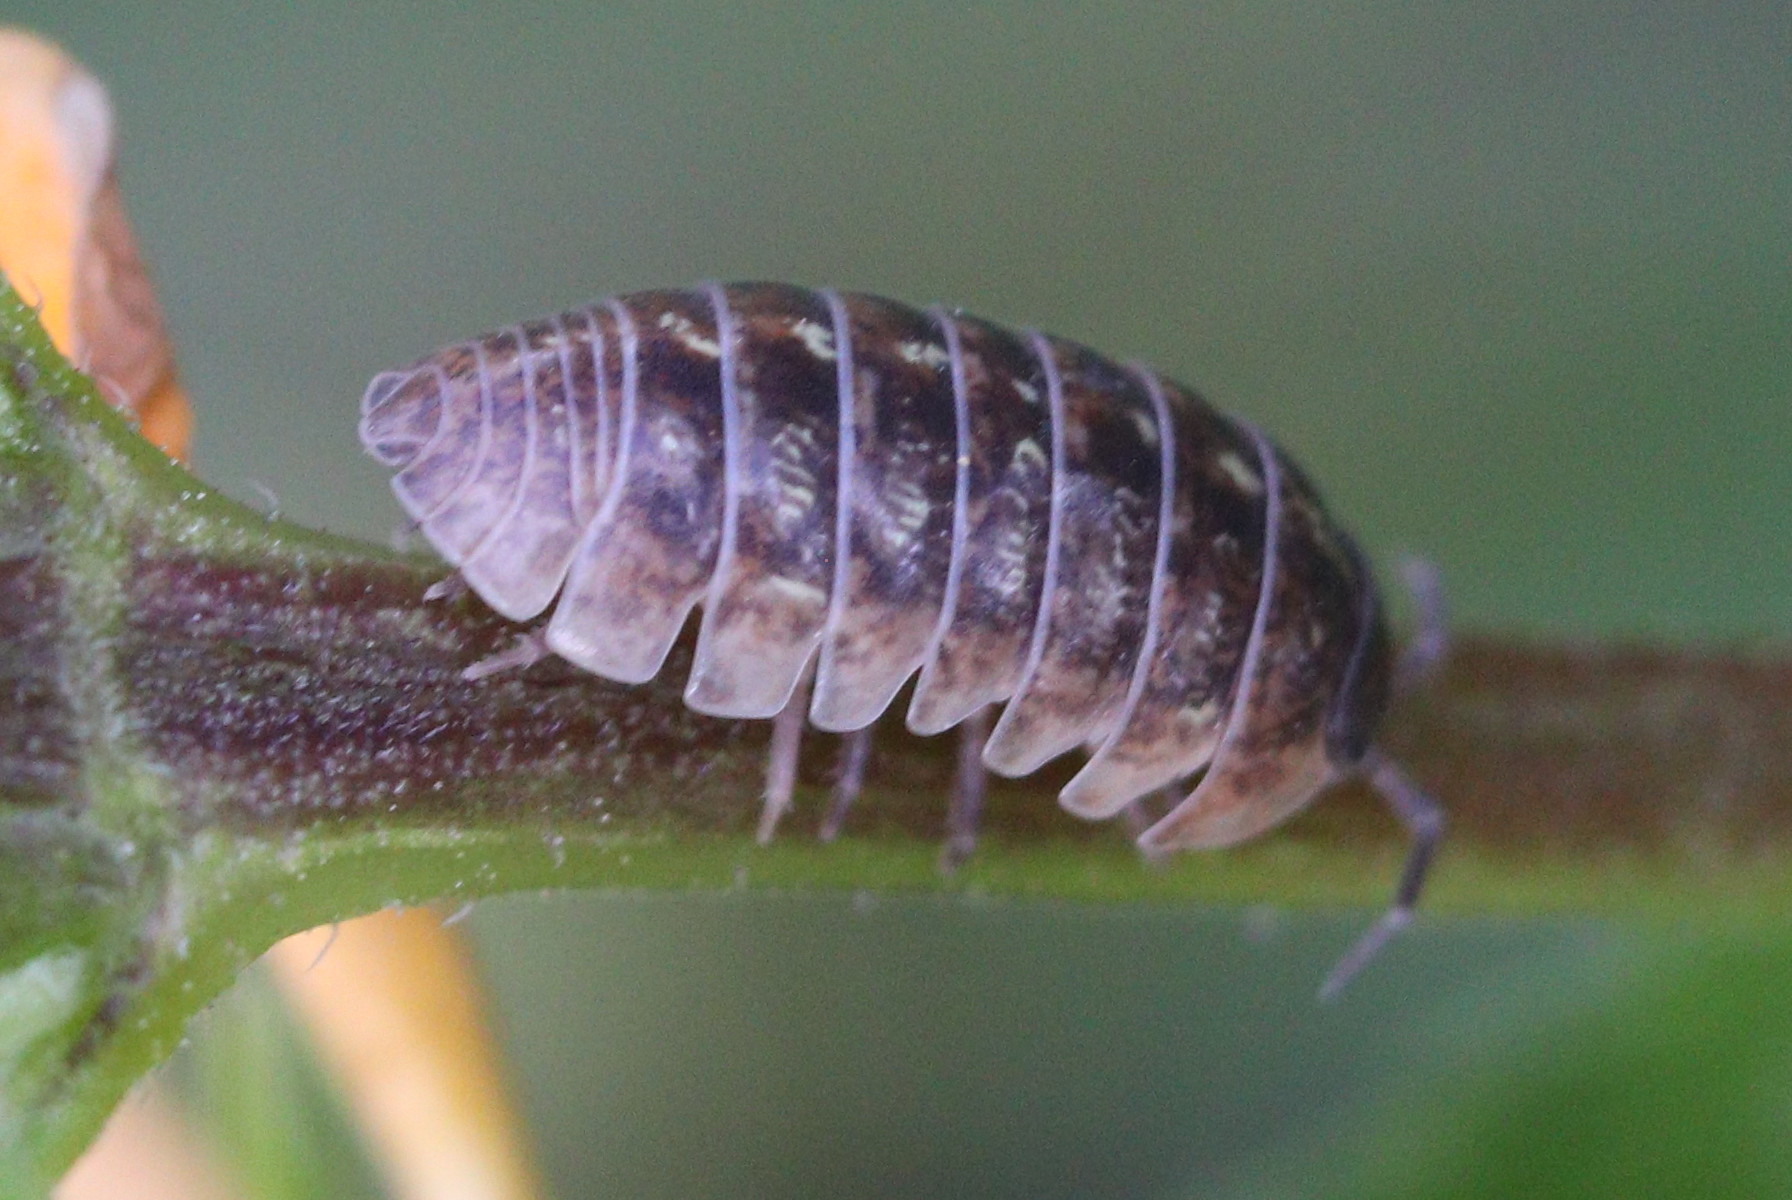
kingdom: Animalia
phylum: Arthropoda
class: Malacostraca
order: Isopoda
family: Armadillidiidae
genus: Armadillidium
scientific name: Armadillidium vulgare
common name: Common pill woodlouse
